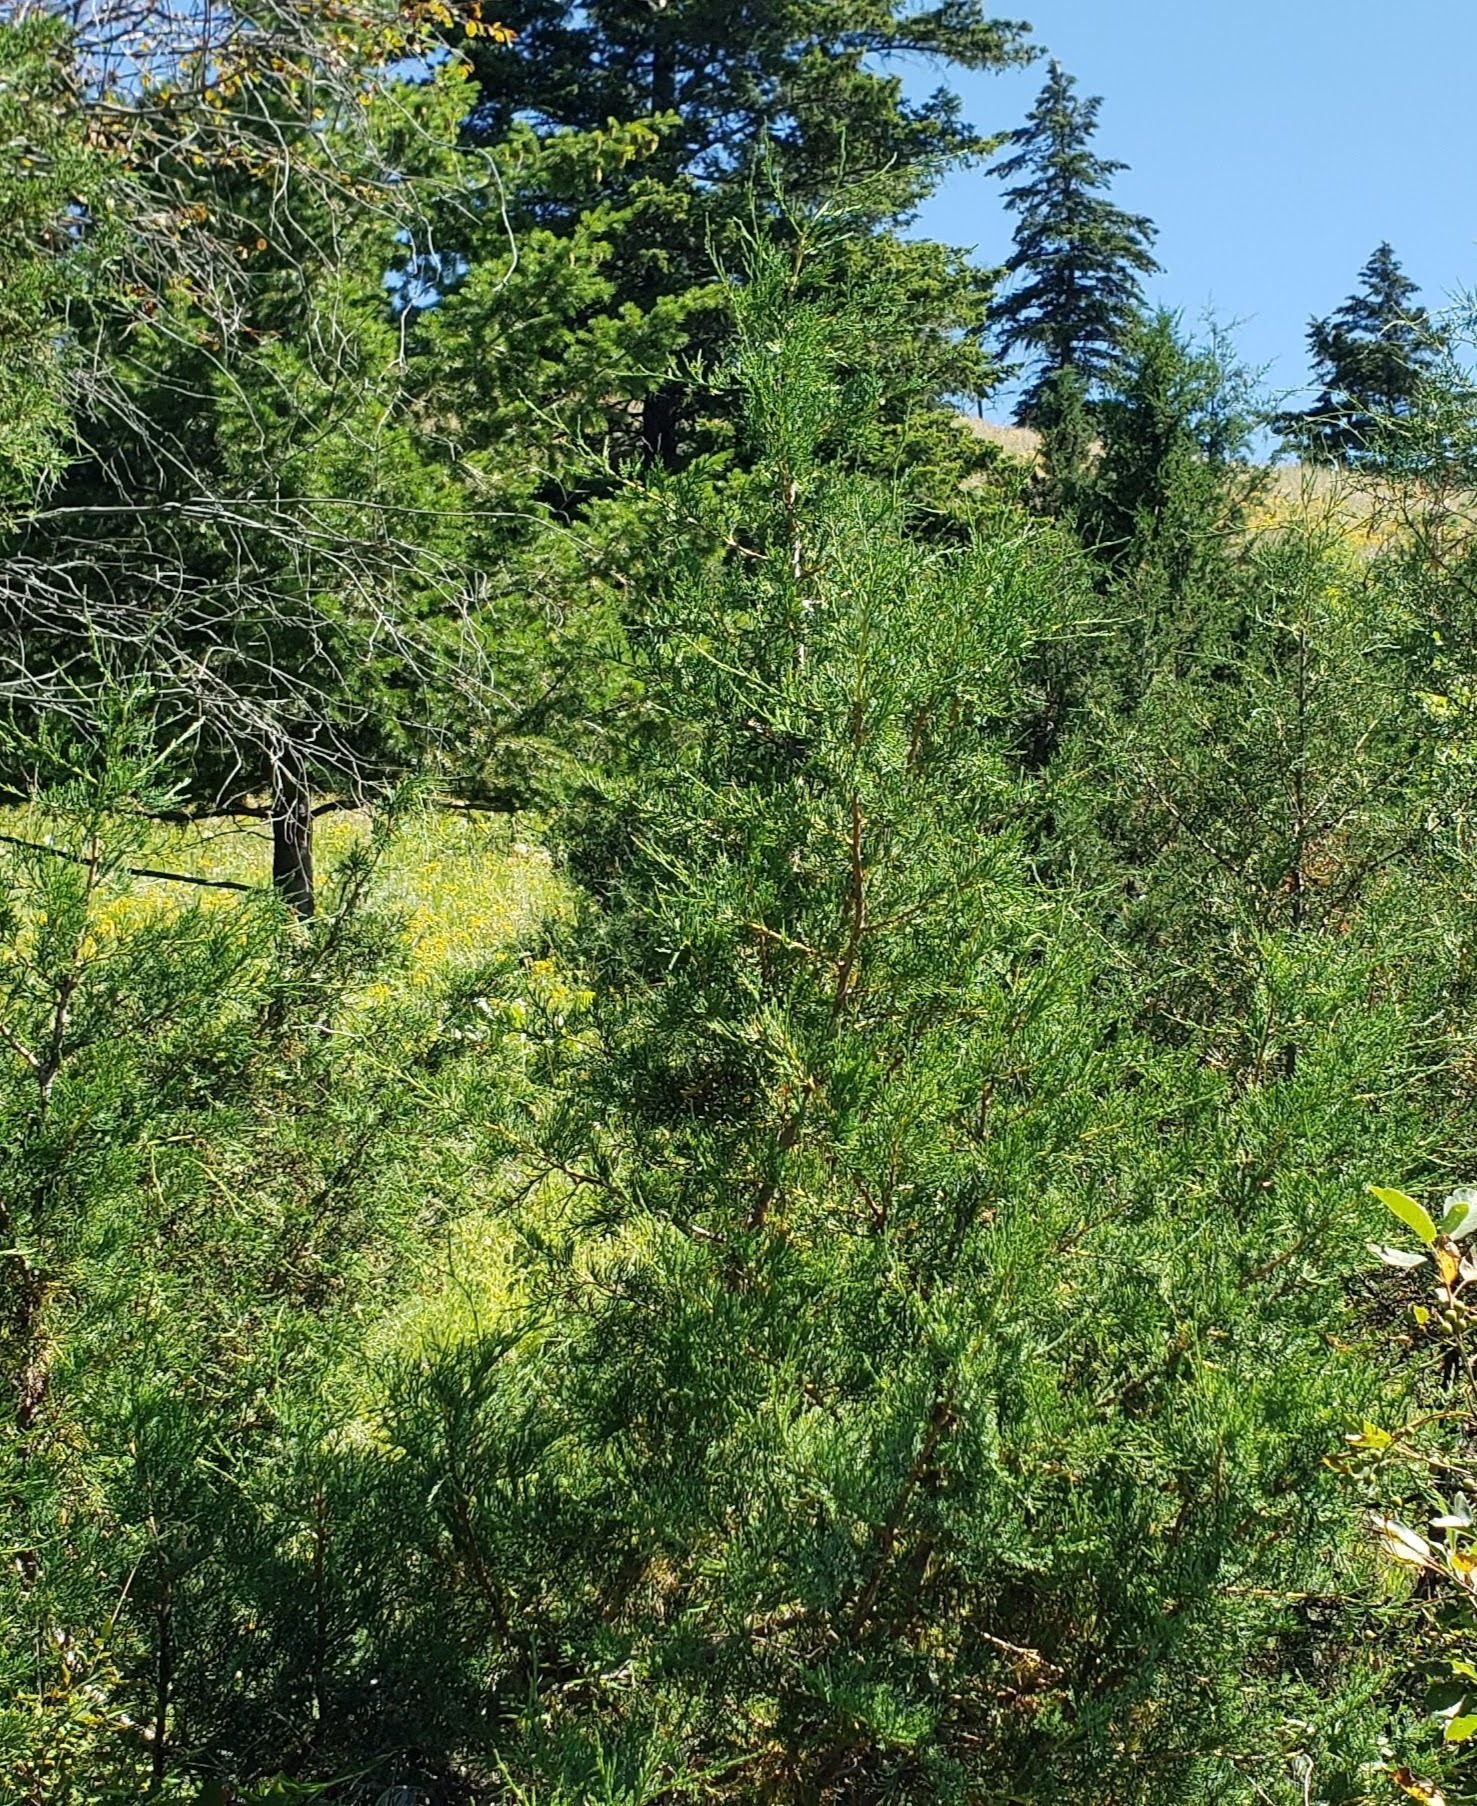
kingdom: Plantae
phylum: Tracheophyta
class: Pinopsida
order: Pinales
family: Cupressaceae
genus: Juniperus
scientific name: Juniperus scopulorum
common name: Rocky mountain juniper
